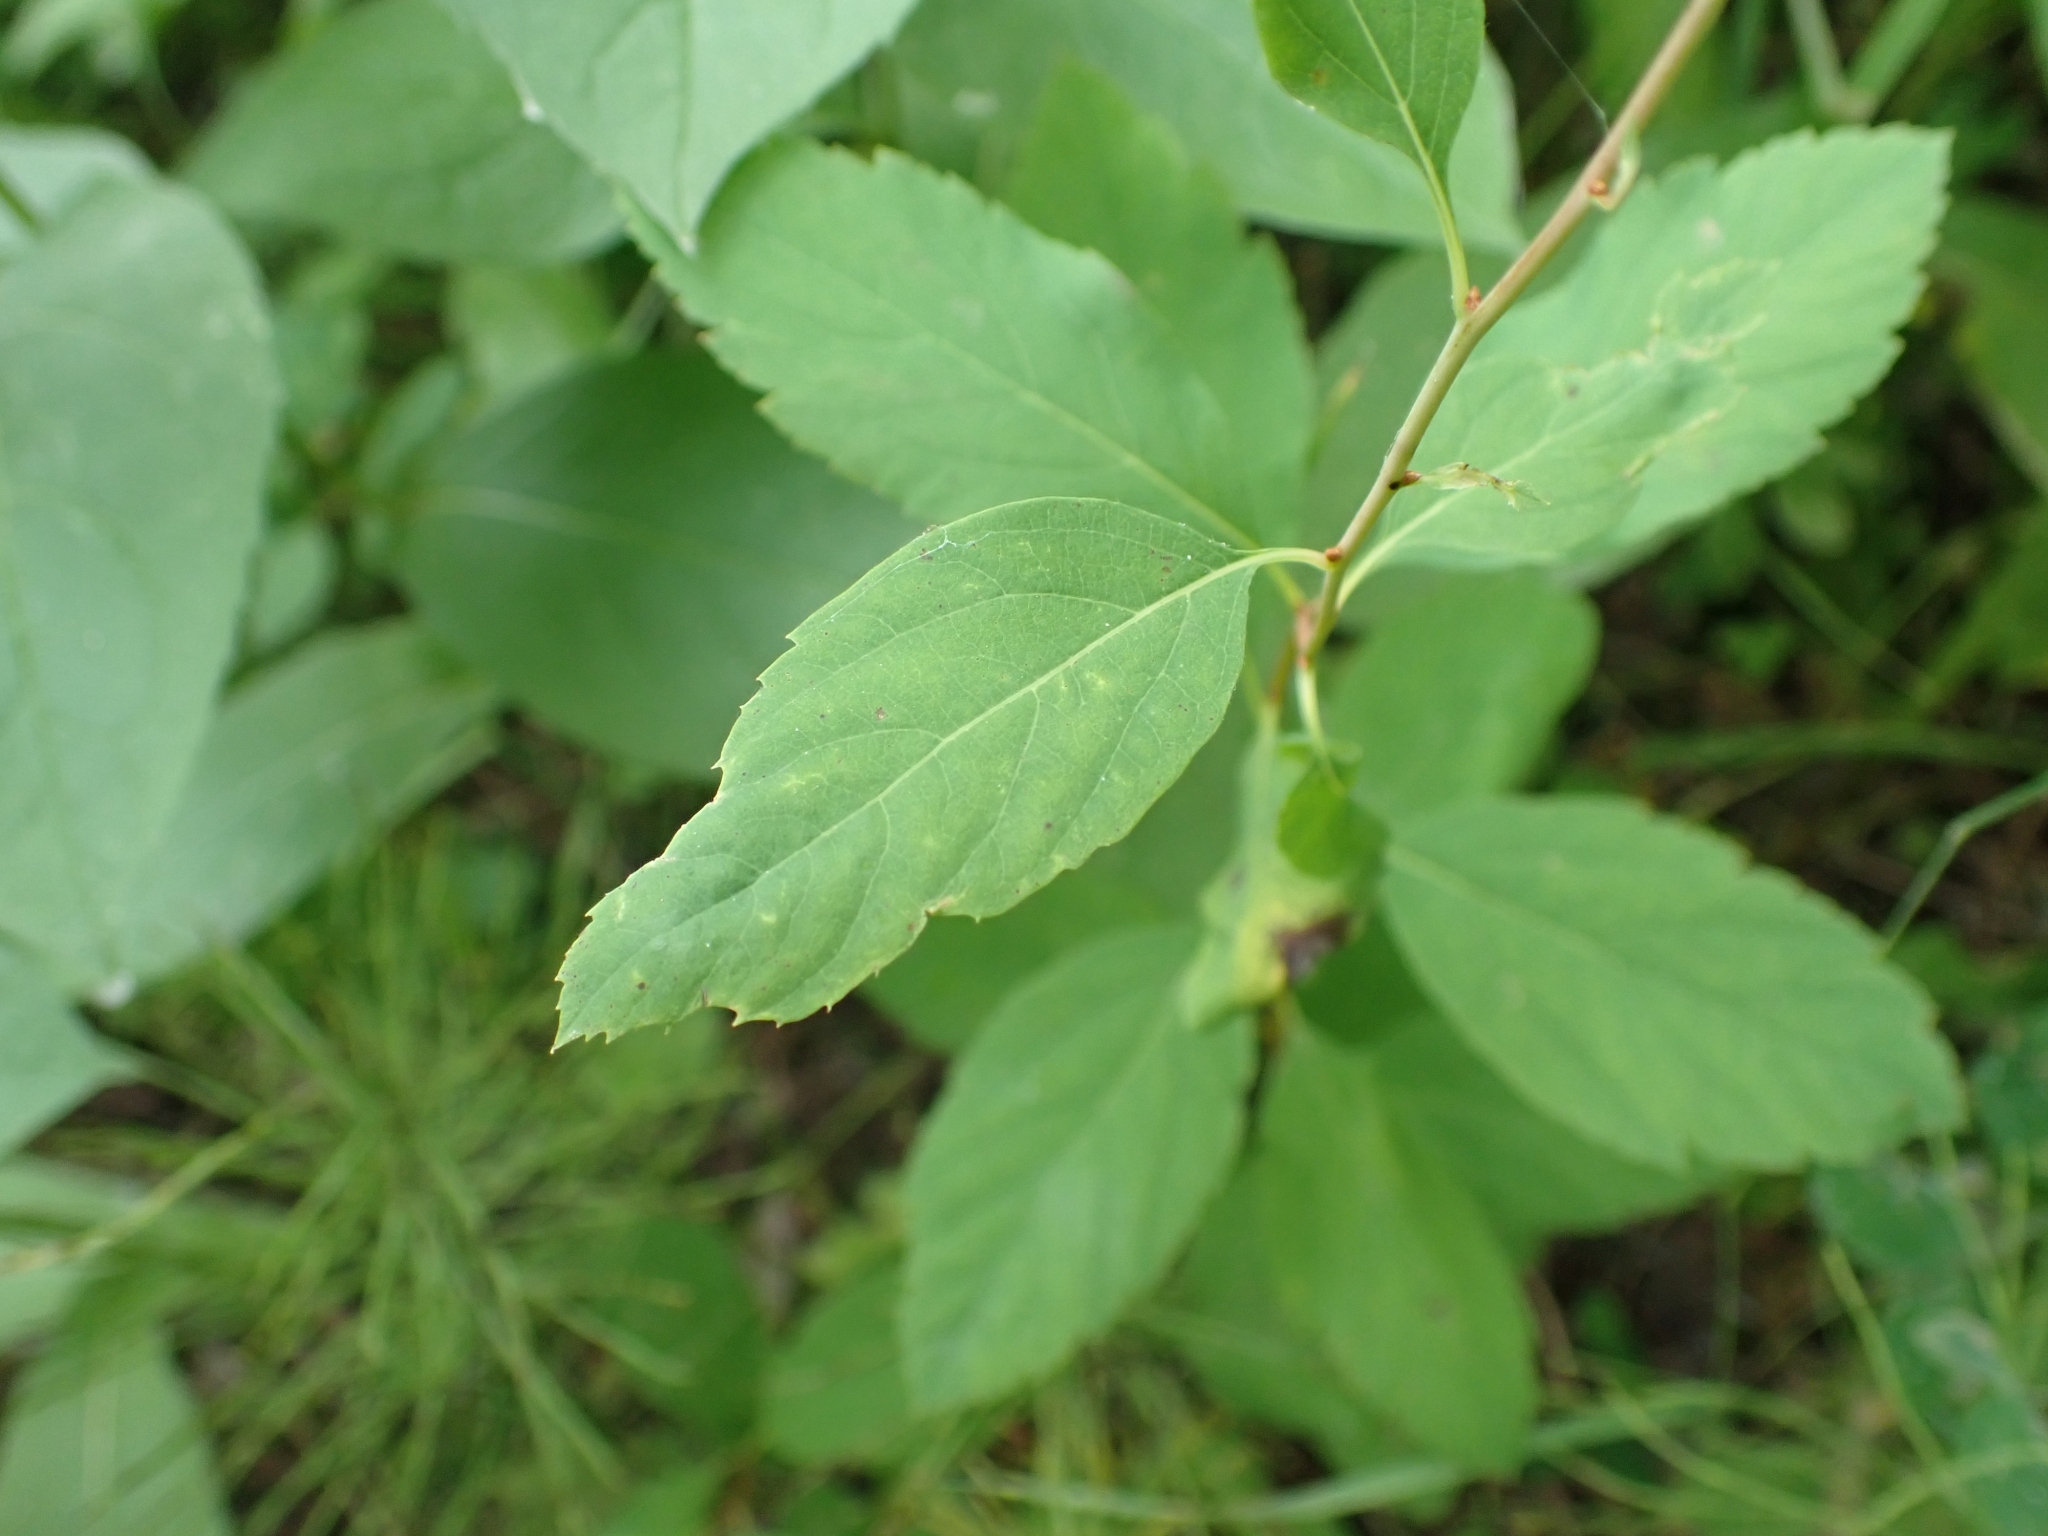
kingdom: Plantae
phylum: Tracheophyta
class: Magnoliopsida
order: Rosales
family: Rosaceae
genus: Spiraea
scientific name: Spiraea lucida
